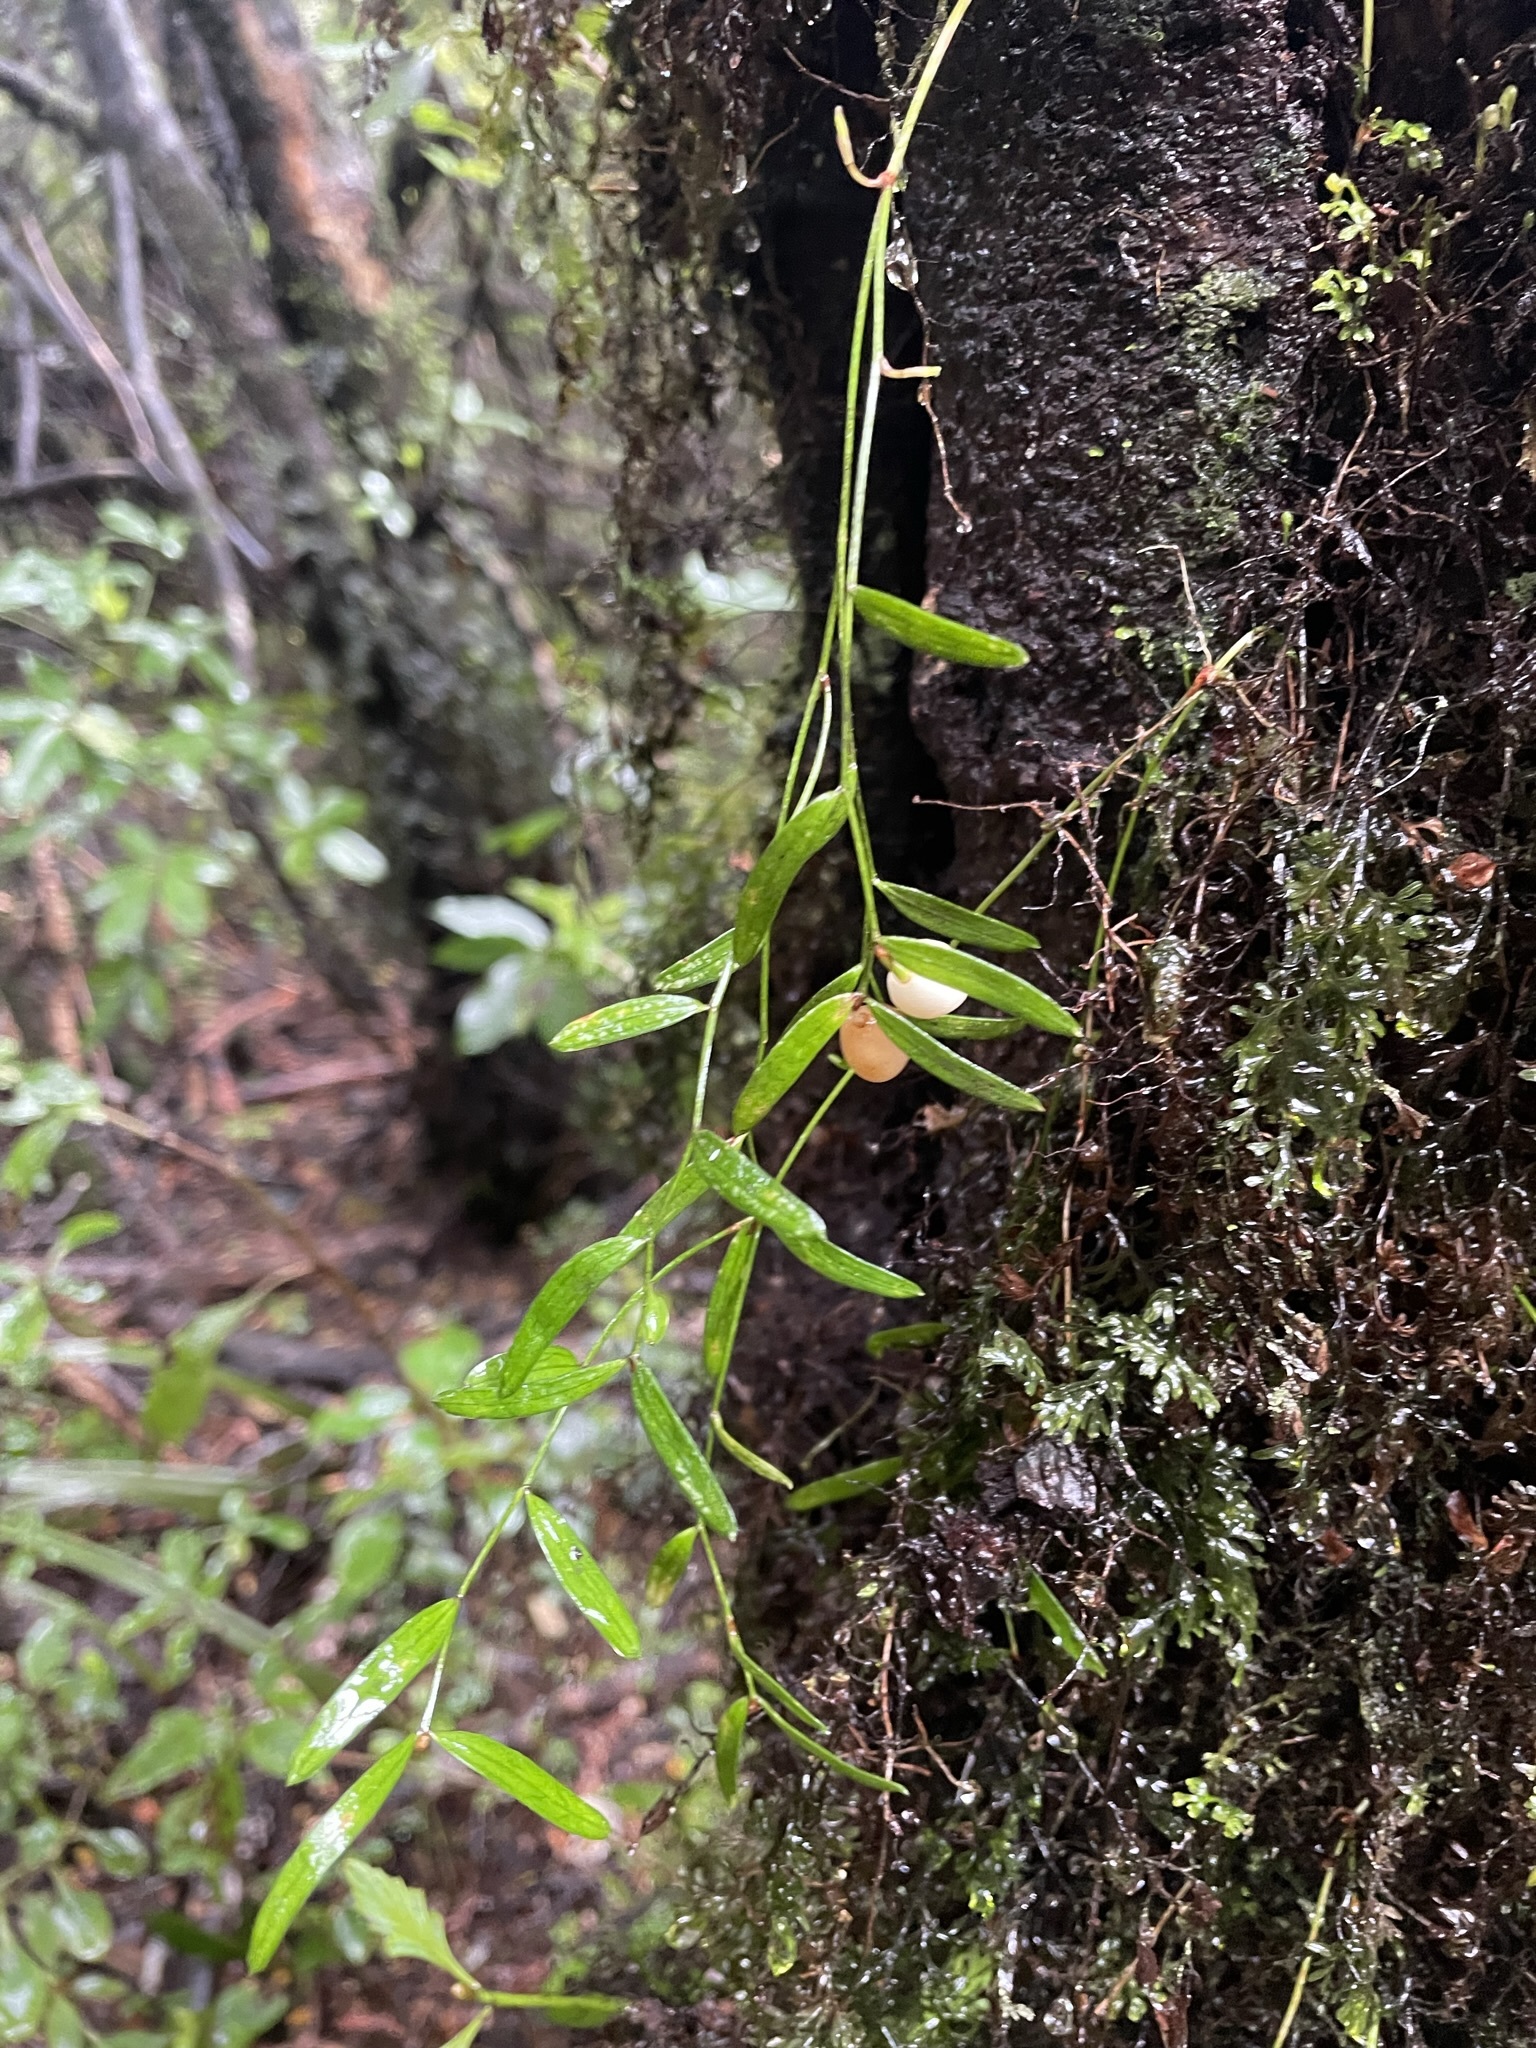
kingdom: Plantae
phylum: Tracheophyta
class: Liliopsida
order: Liliales
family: Alstroemeriaceae
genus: Luzuriaga
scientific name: Luzuriaga parviflora
